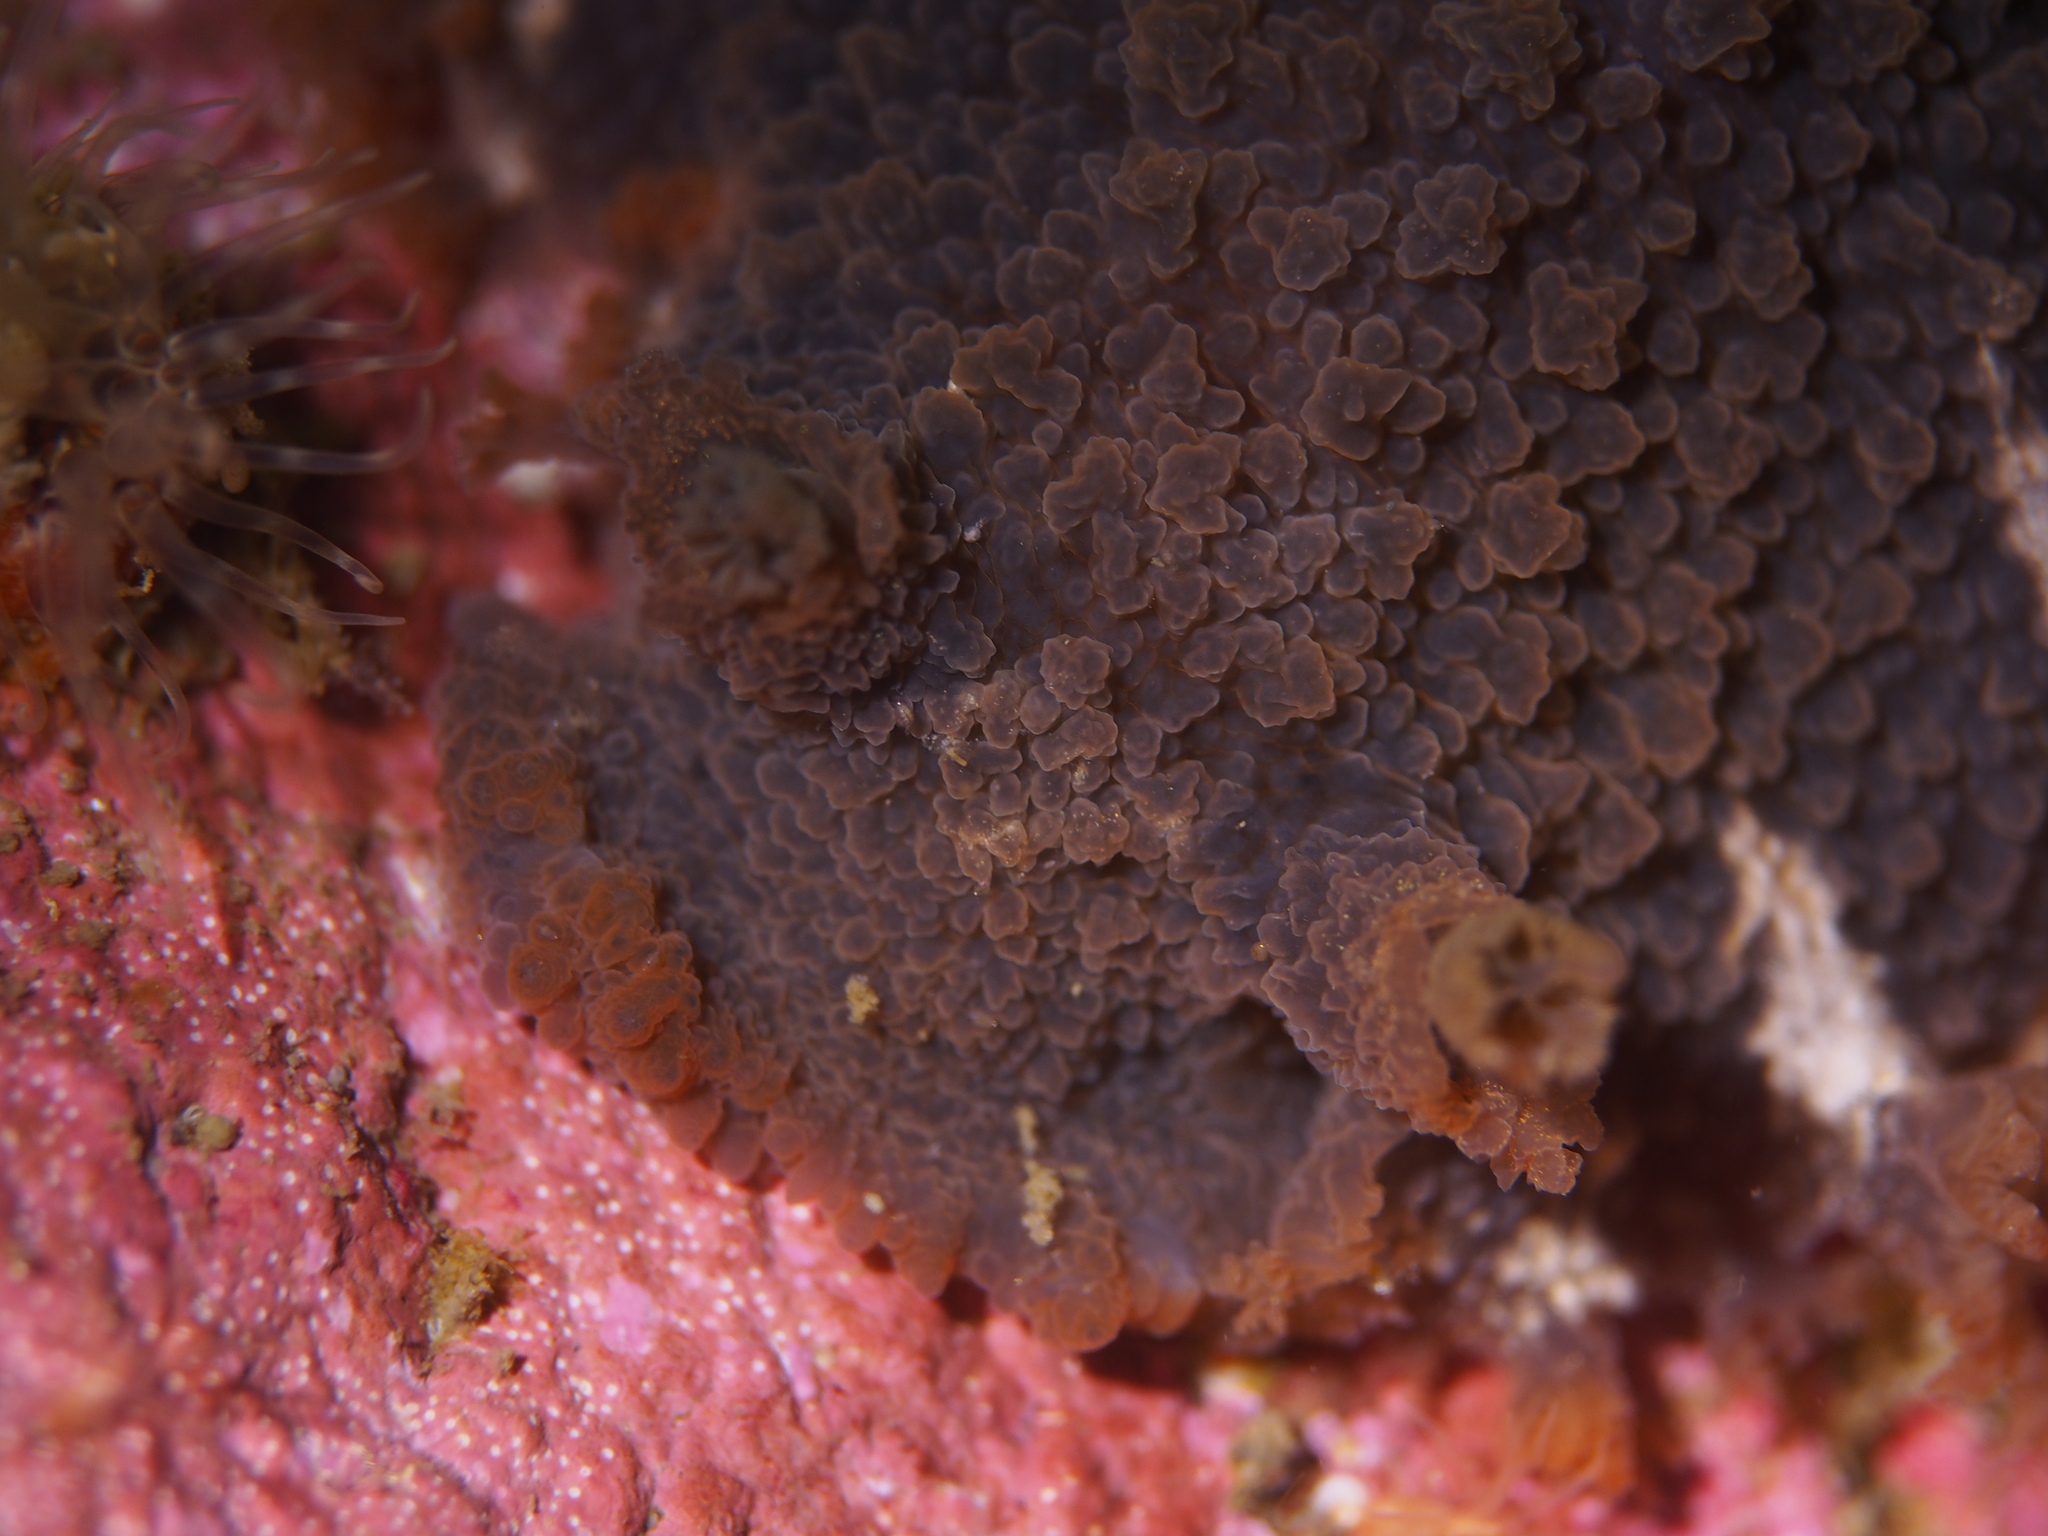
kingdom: Animalia
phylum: Mollusca
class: Gastropoda
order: Nudibranchia
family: Tritoniidae
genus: Tritonia
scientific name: Tritonia hombergii
